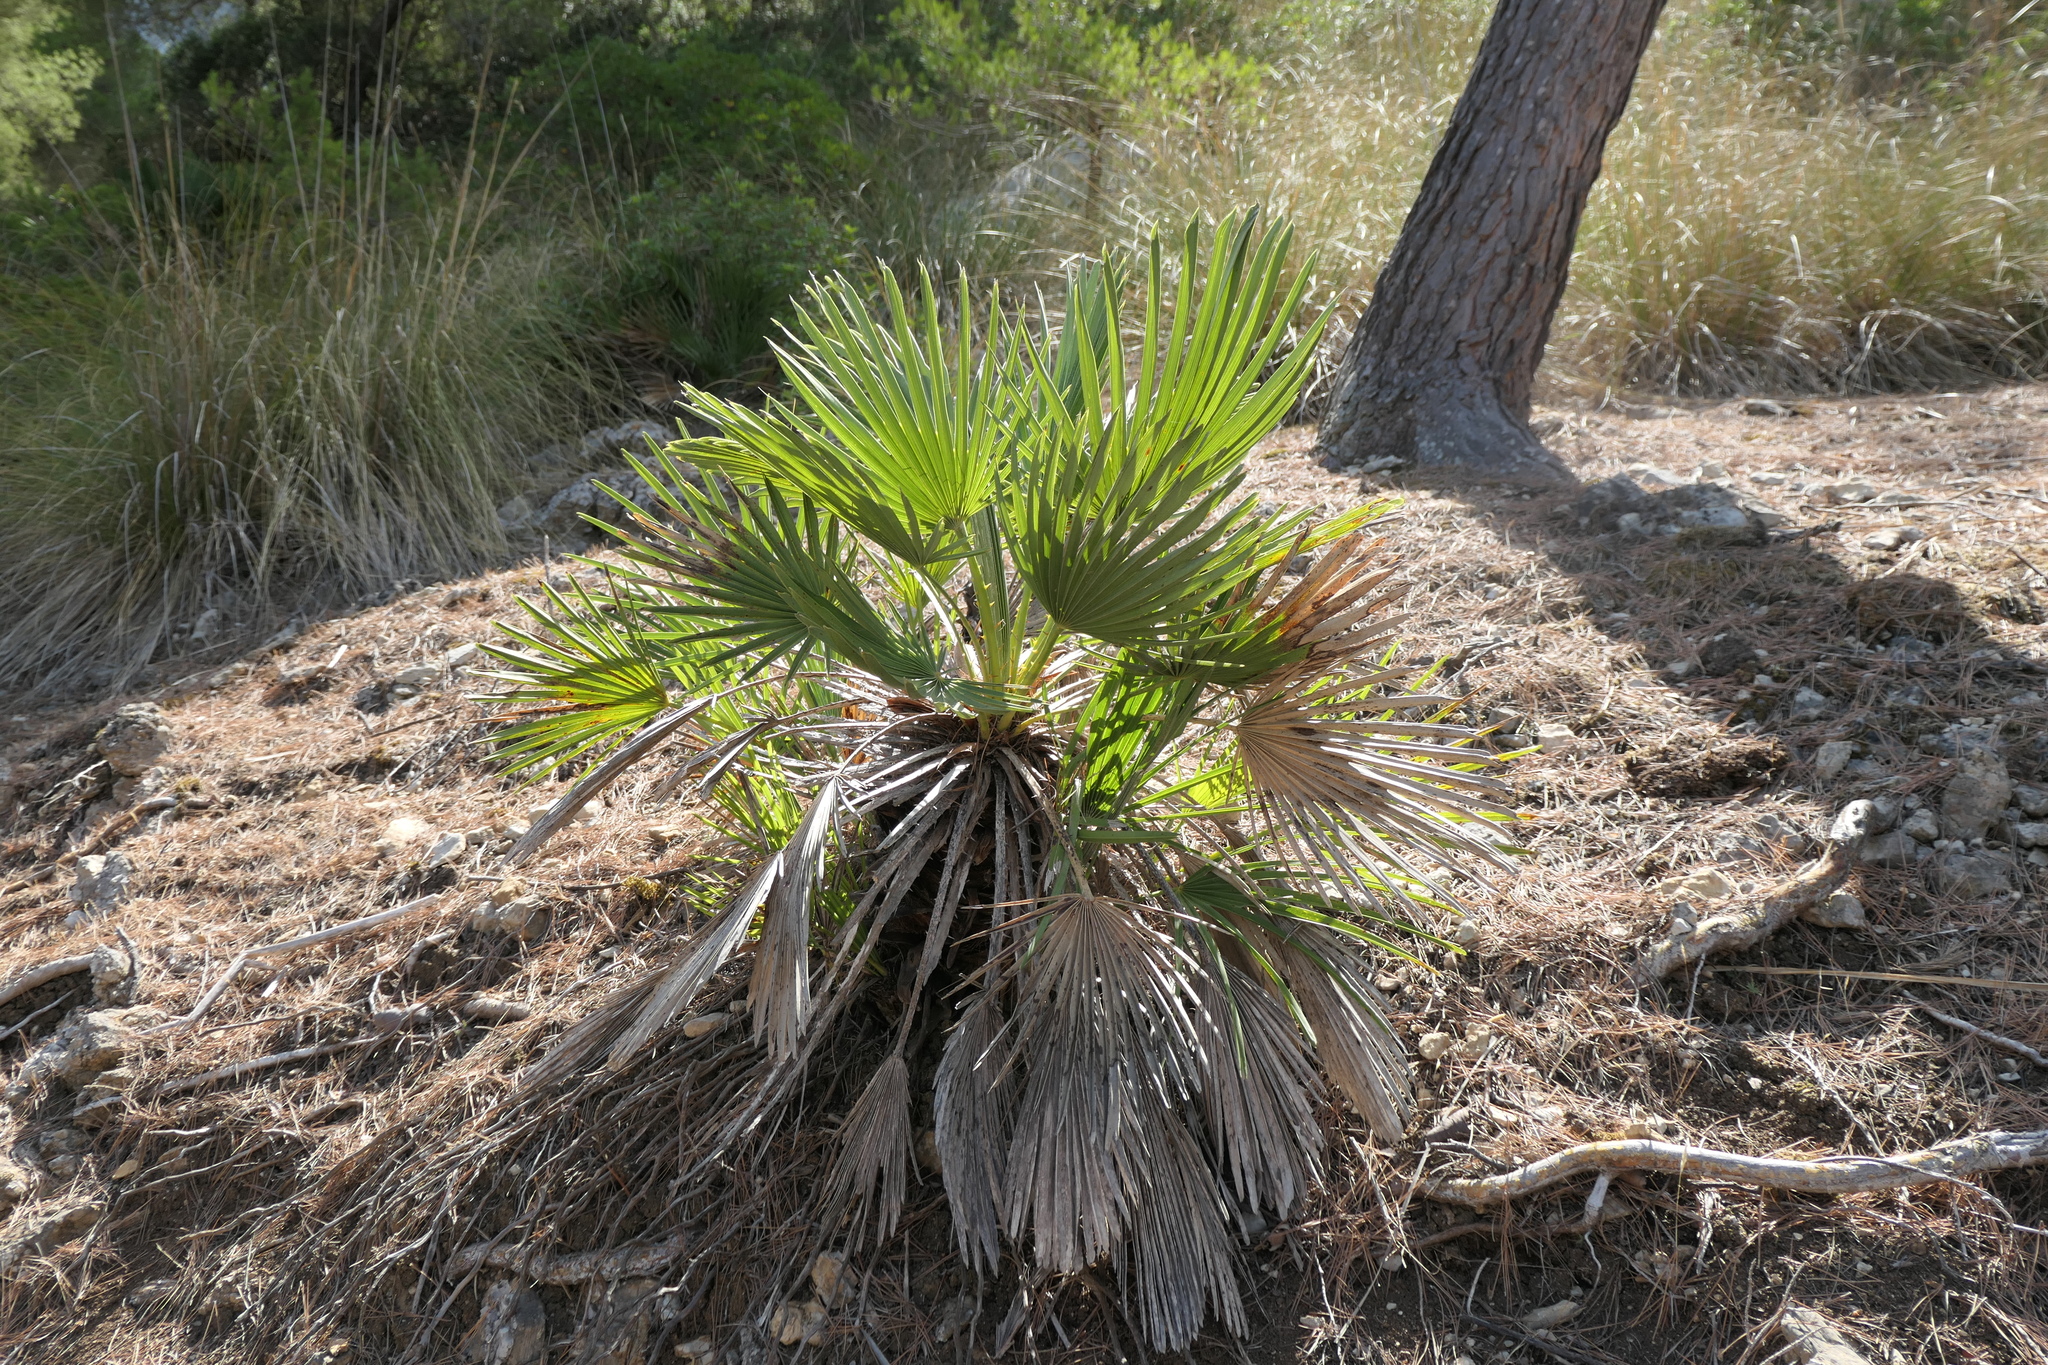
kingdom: Plantae
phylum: Tracheophyta
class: Liliopsida
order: Arecales
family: Arecaceae
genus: Chamaerops
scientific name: Chamaerops humilis
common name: Dwarf fan palm
